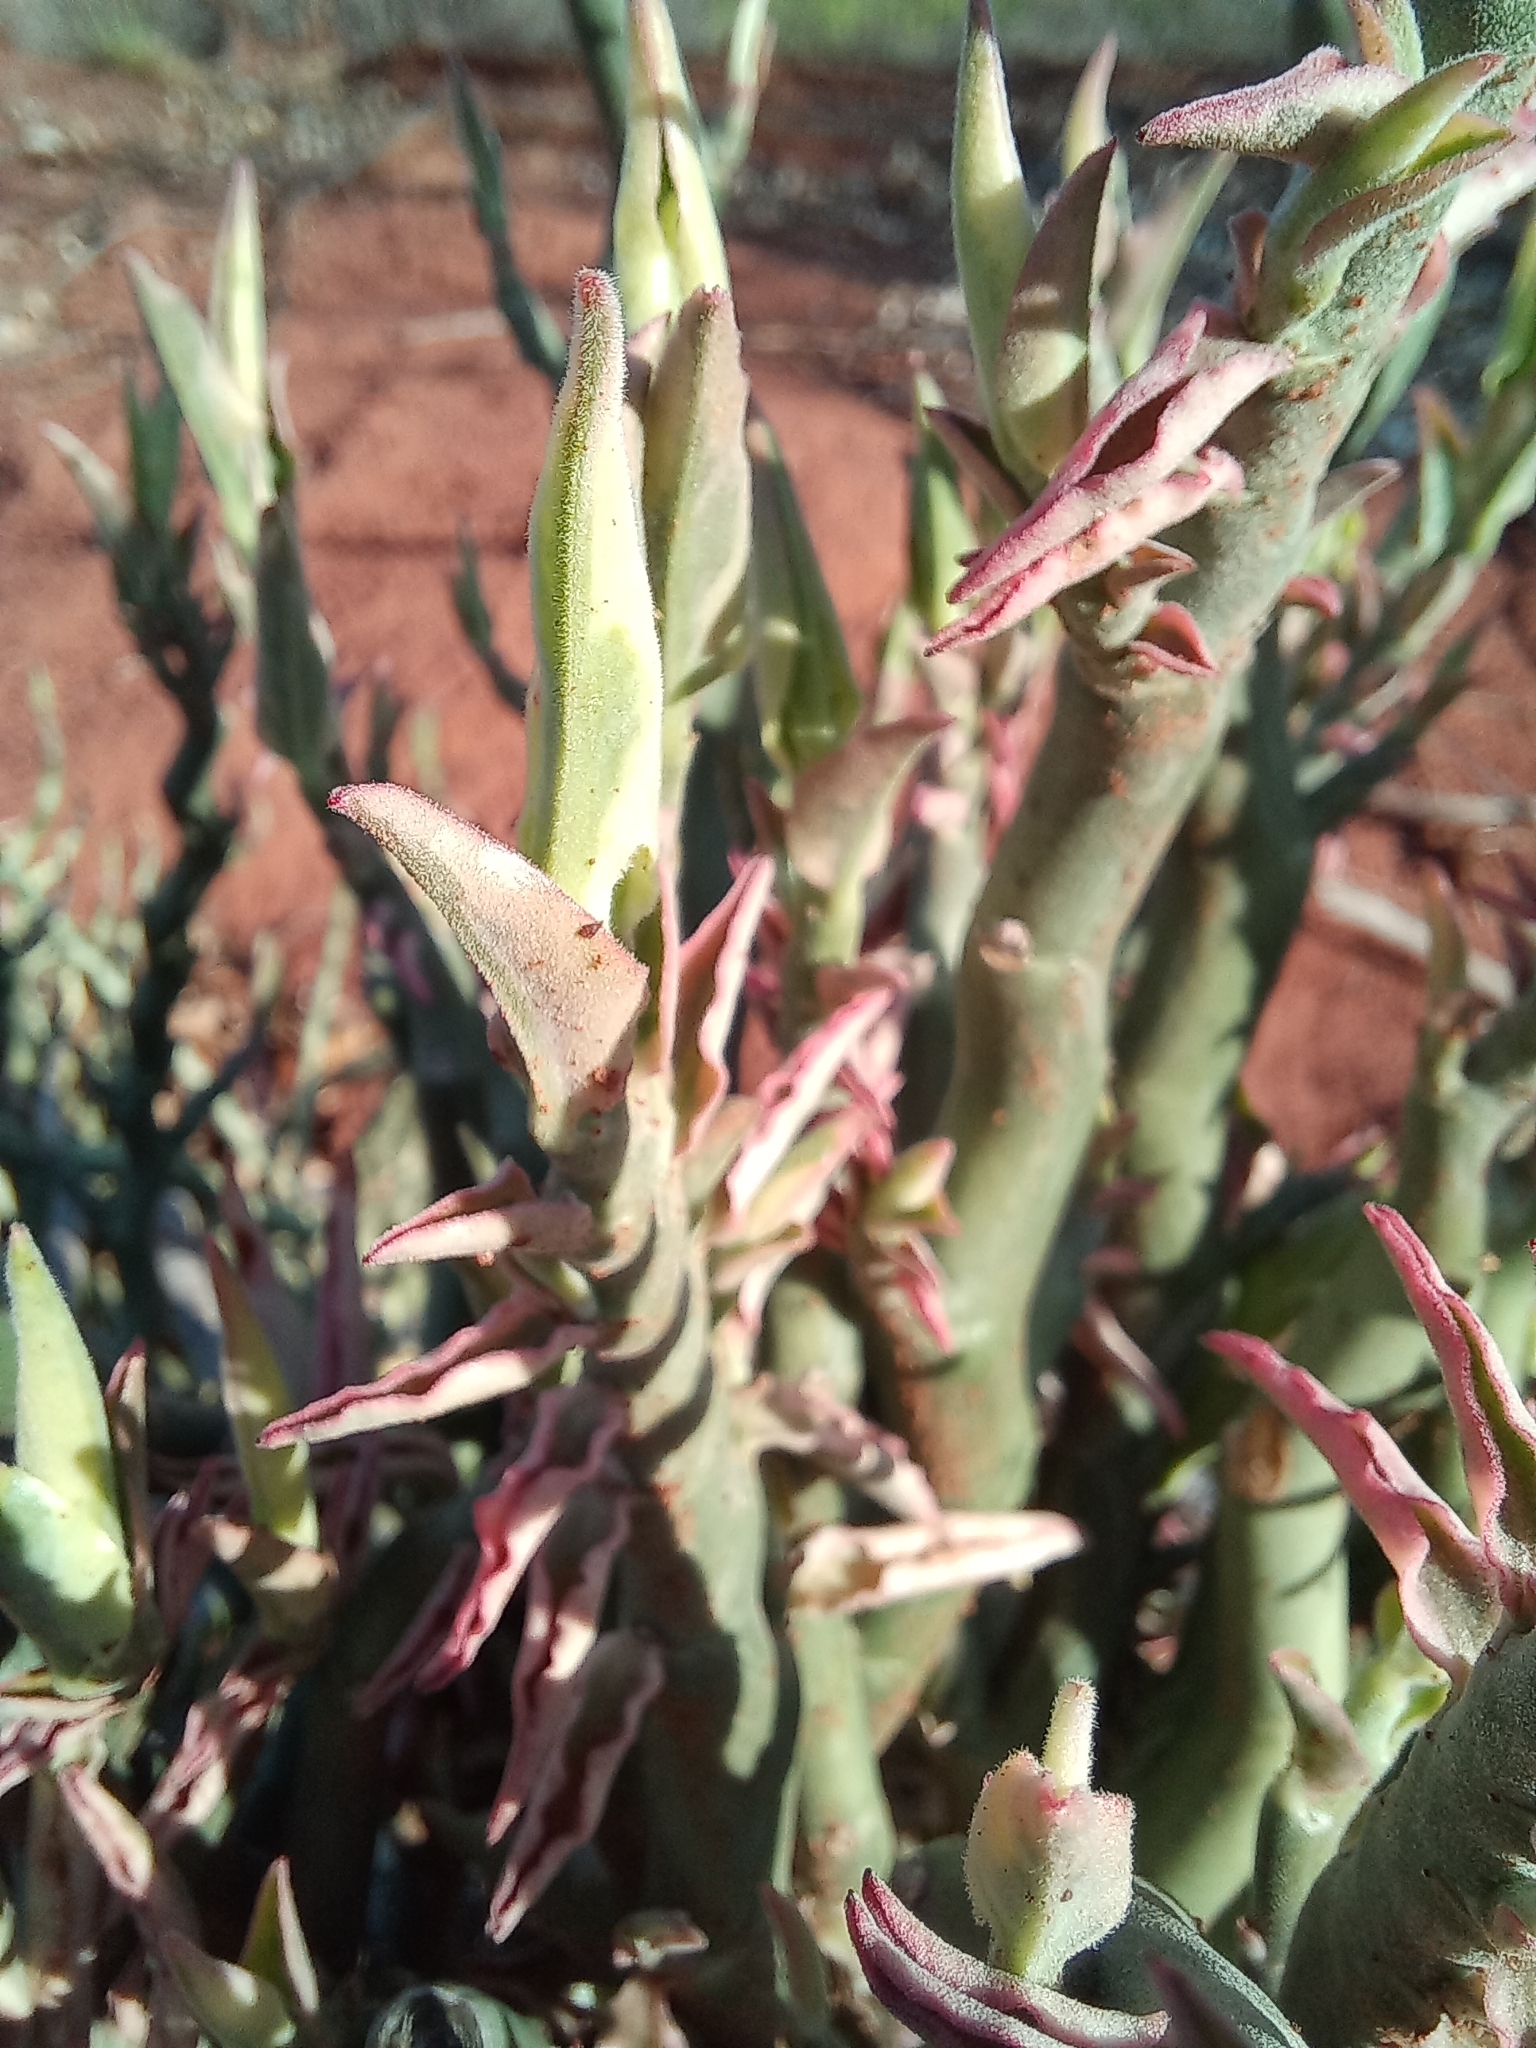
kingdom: Plantae
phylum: Tracheophyta
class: Magnoliopsida
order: Malpighiales
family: Euphorbiaceae
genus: Euphorbia
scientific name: Euphorbia tithymaloides
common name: Slipperplant
